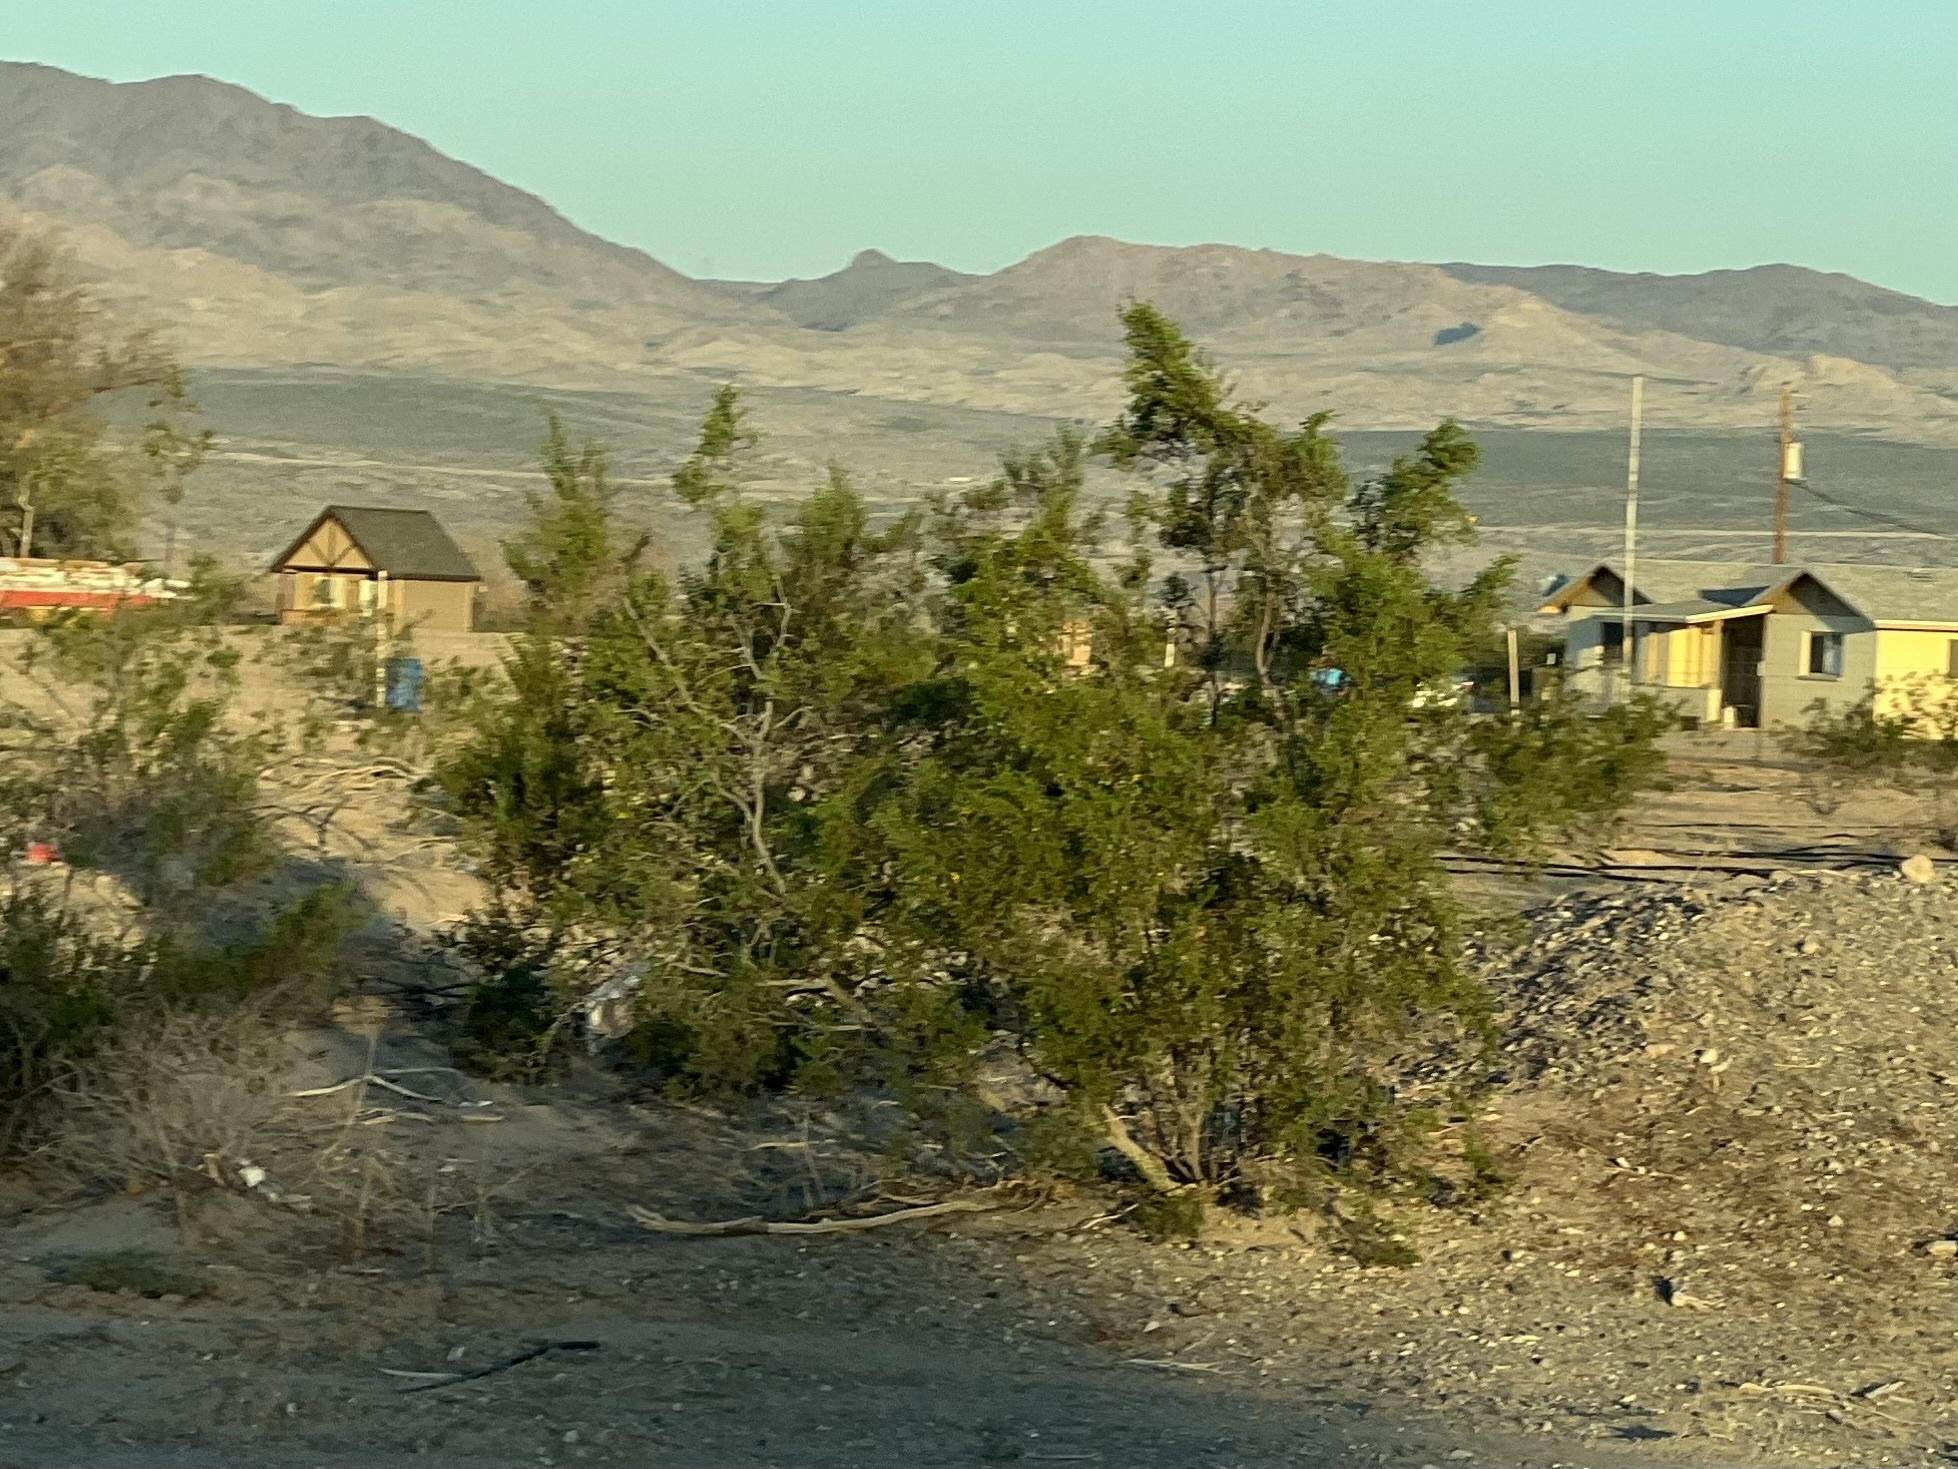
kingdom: Plantae
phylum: Tracheophyta
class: Magnoliopsida
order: Zygophyllales
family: Zygophyllaceae
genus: Larrea
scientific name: Larrea tridentata
